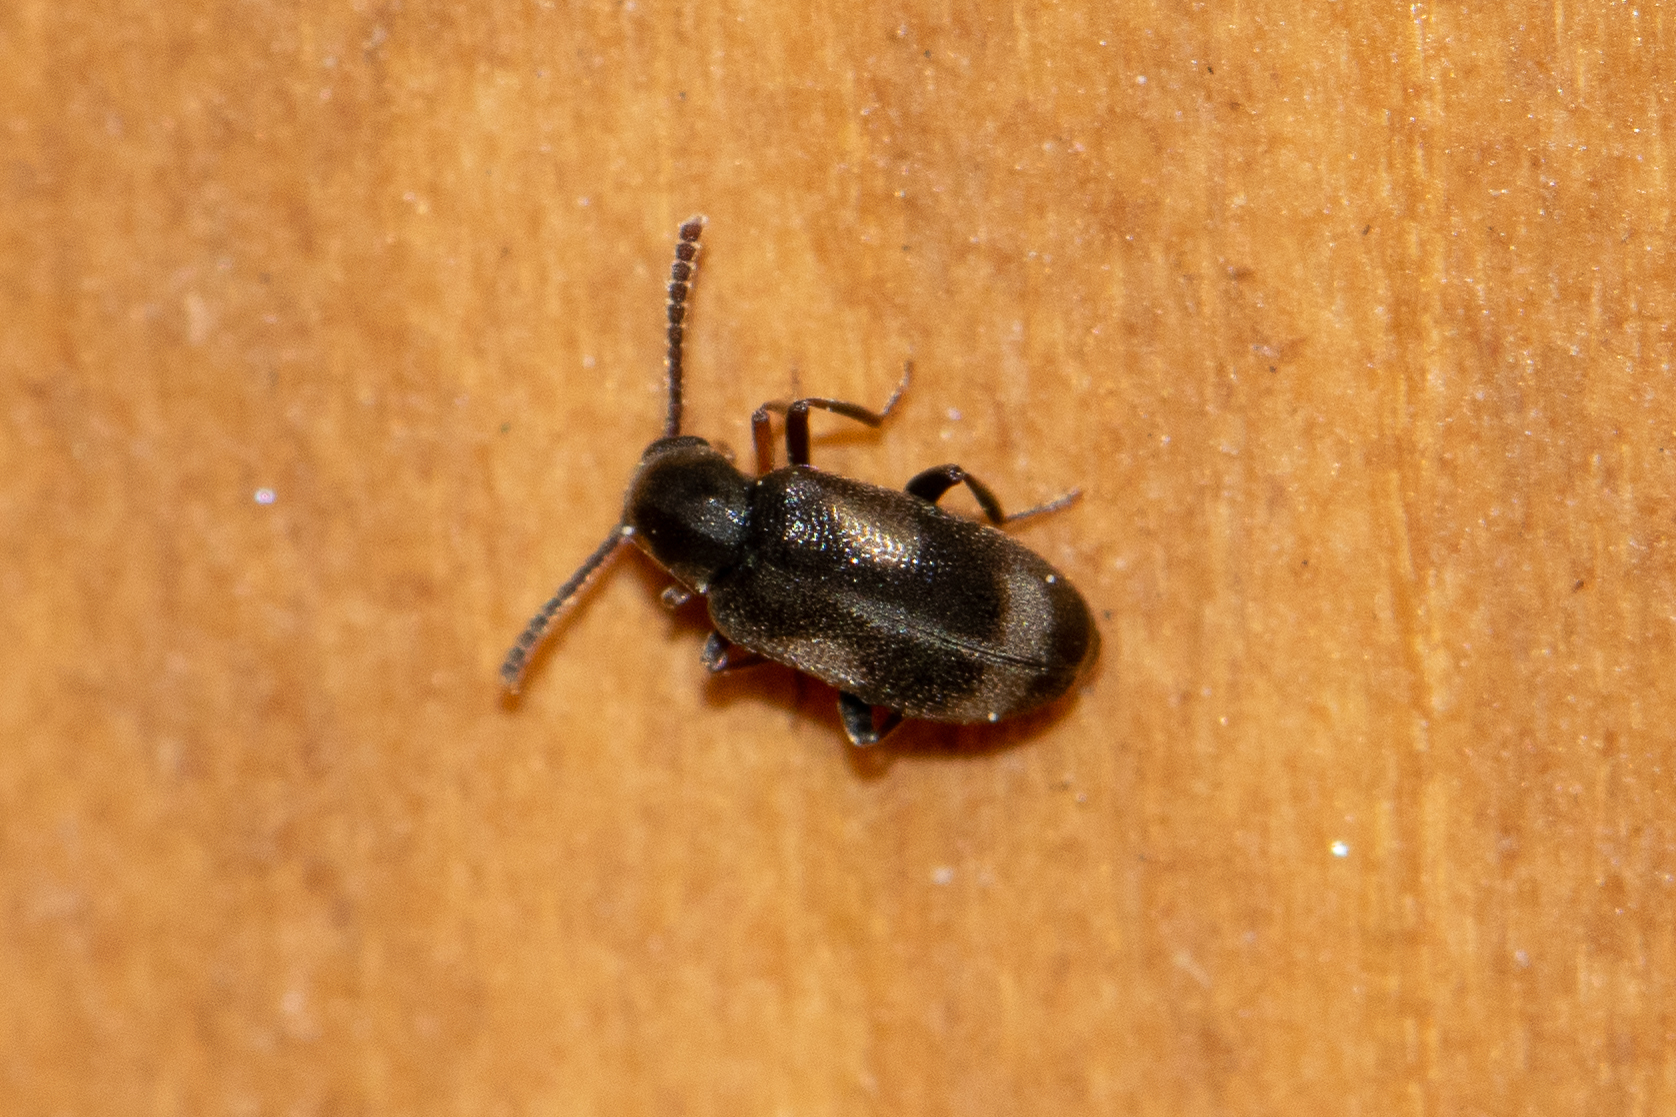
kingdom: Animalia
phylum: Arthropoda
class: Insecta
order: Coleoptera
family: Aderidae
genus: Phytobaenus
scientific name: Phytobaenus amabilis
